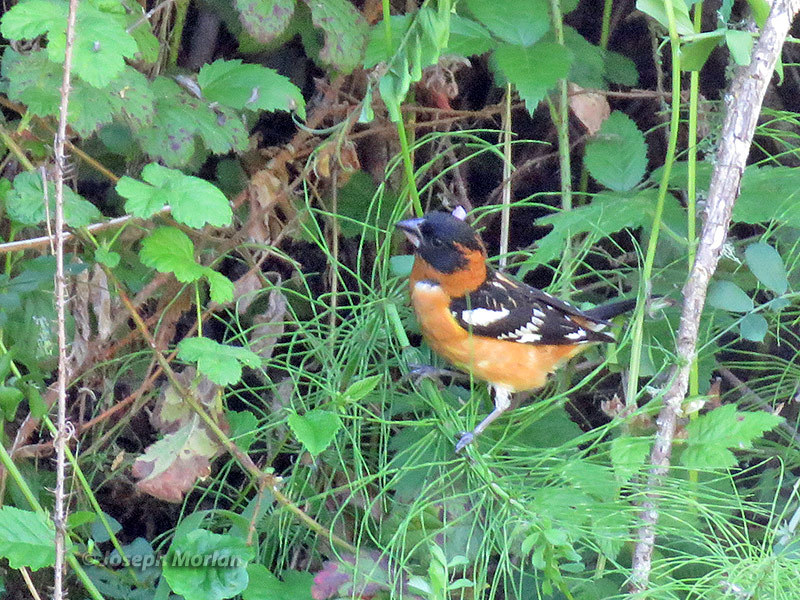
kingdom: Animalia
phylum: Chordata
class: Aves
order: Passeriformes
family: Cardinalidae
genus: Pheucticus
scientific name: Pheucticus melanocephalus
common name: Black-headed grosbeak
